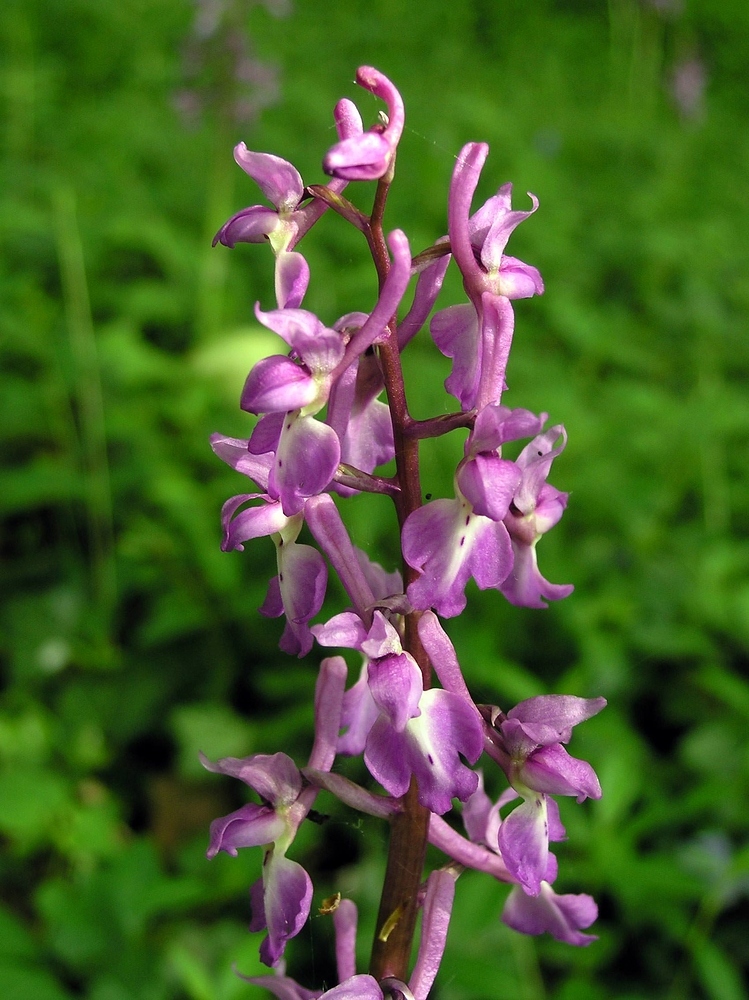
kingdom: Plantae
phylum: Tracheophyta
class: Liliopsida
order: Asparagales
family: Orchidaceae
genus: Orchis
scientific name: Orchis mascula
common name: Early-purple orchid
